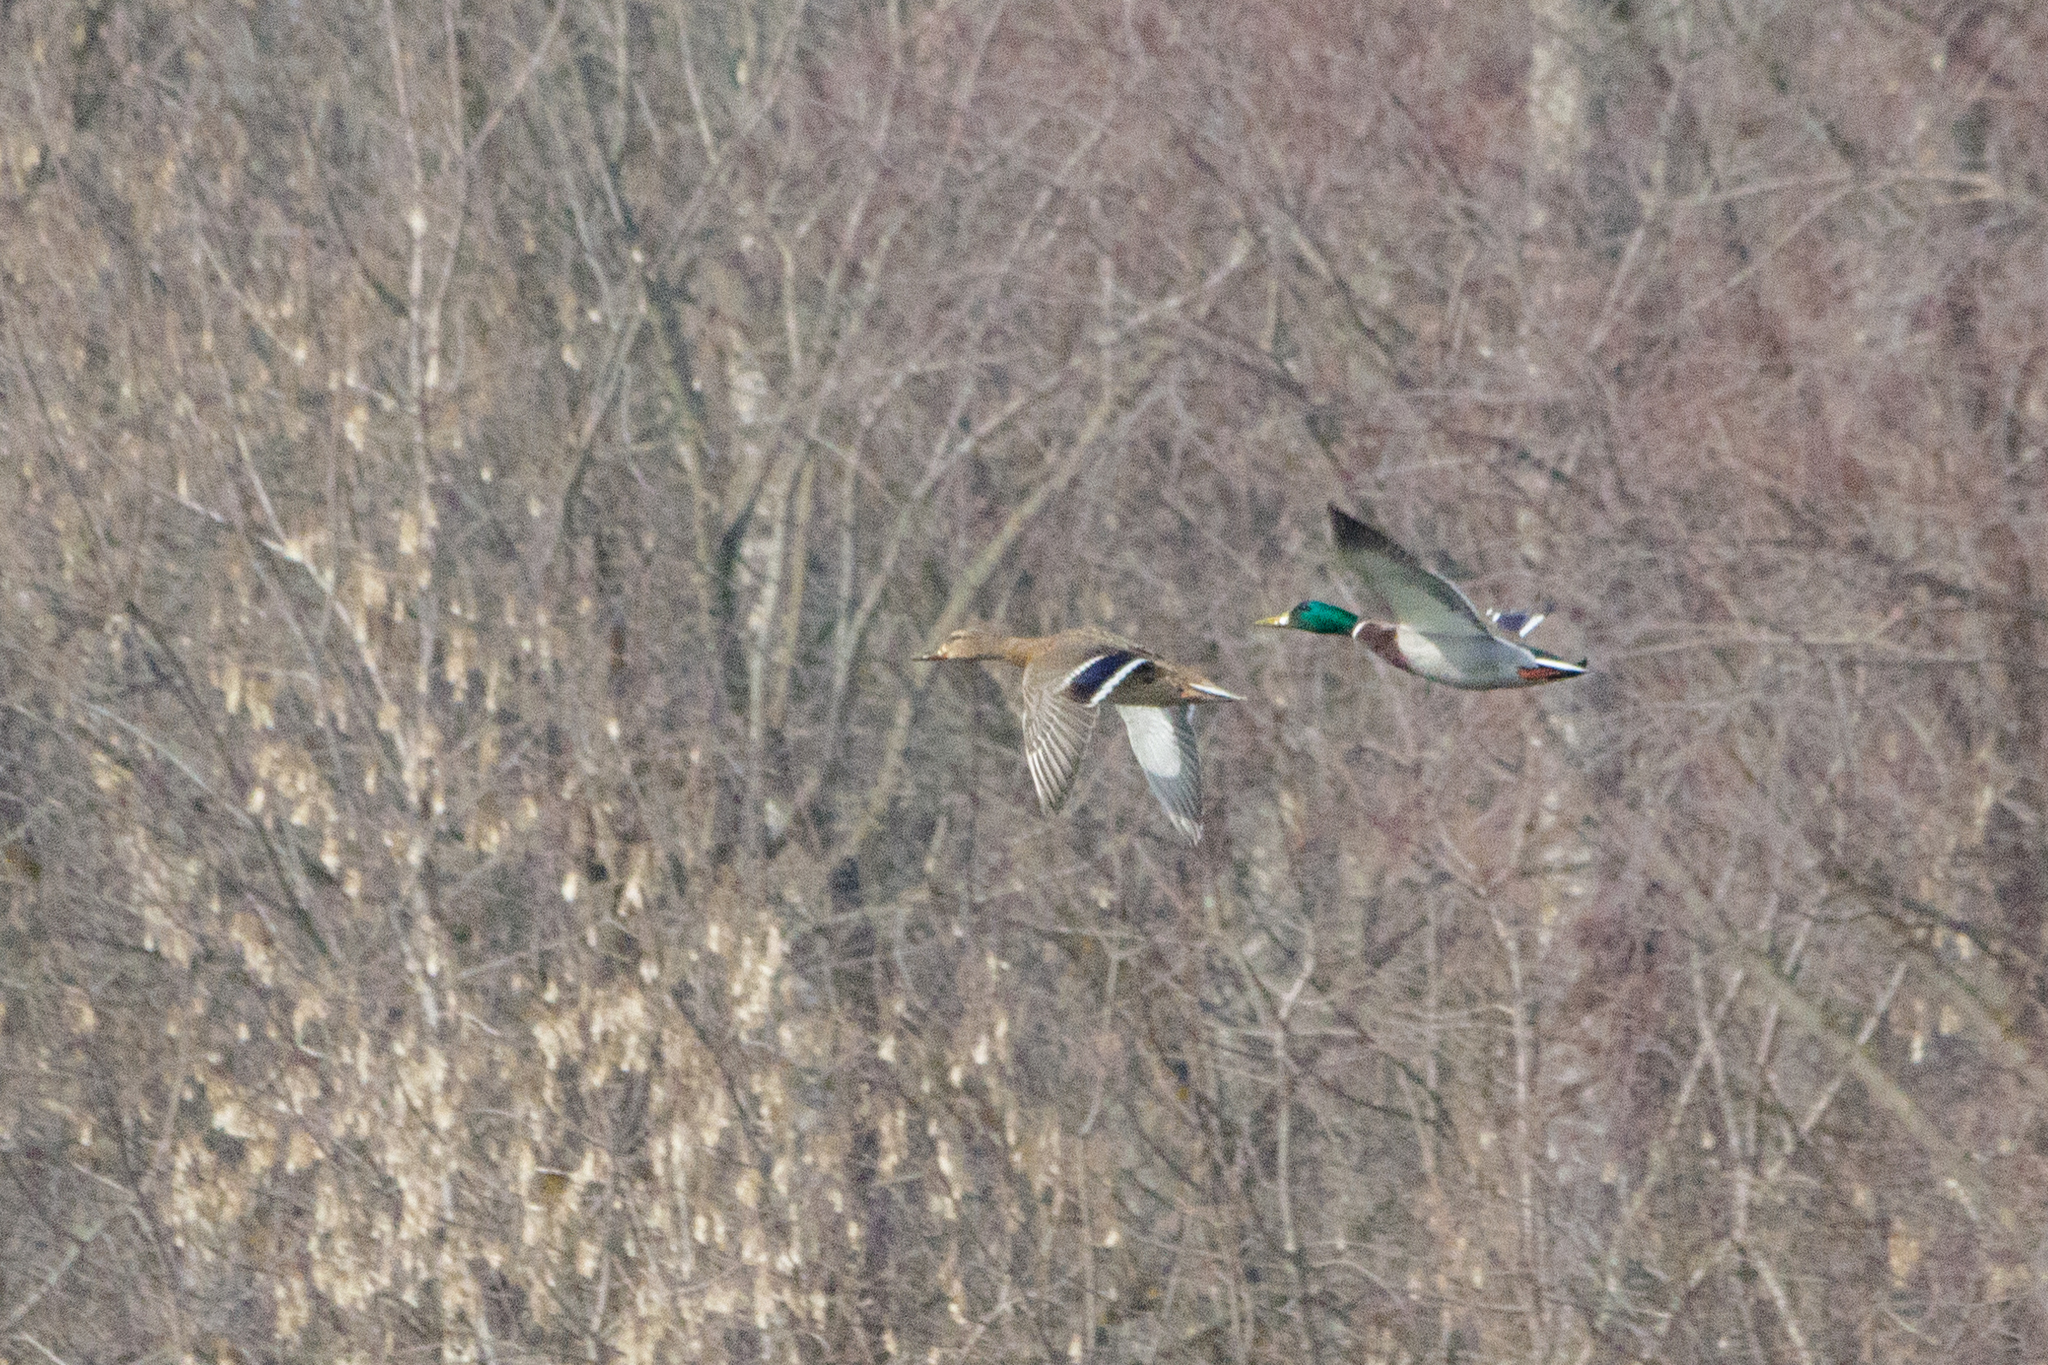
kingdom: Animalia
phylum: Chordata
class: Aves
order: Anseriformes
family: Anatidae
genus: Anas
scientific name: Anas platyrhynchos
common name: Mallard
